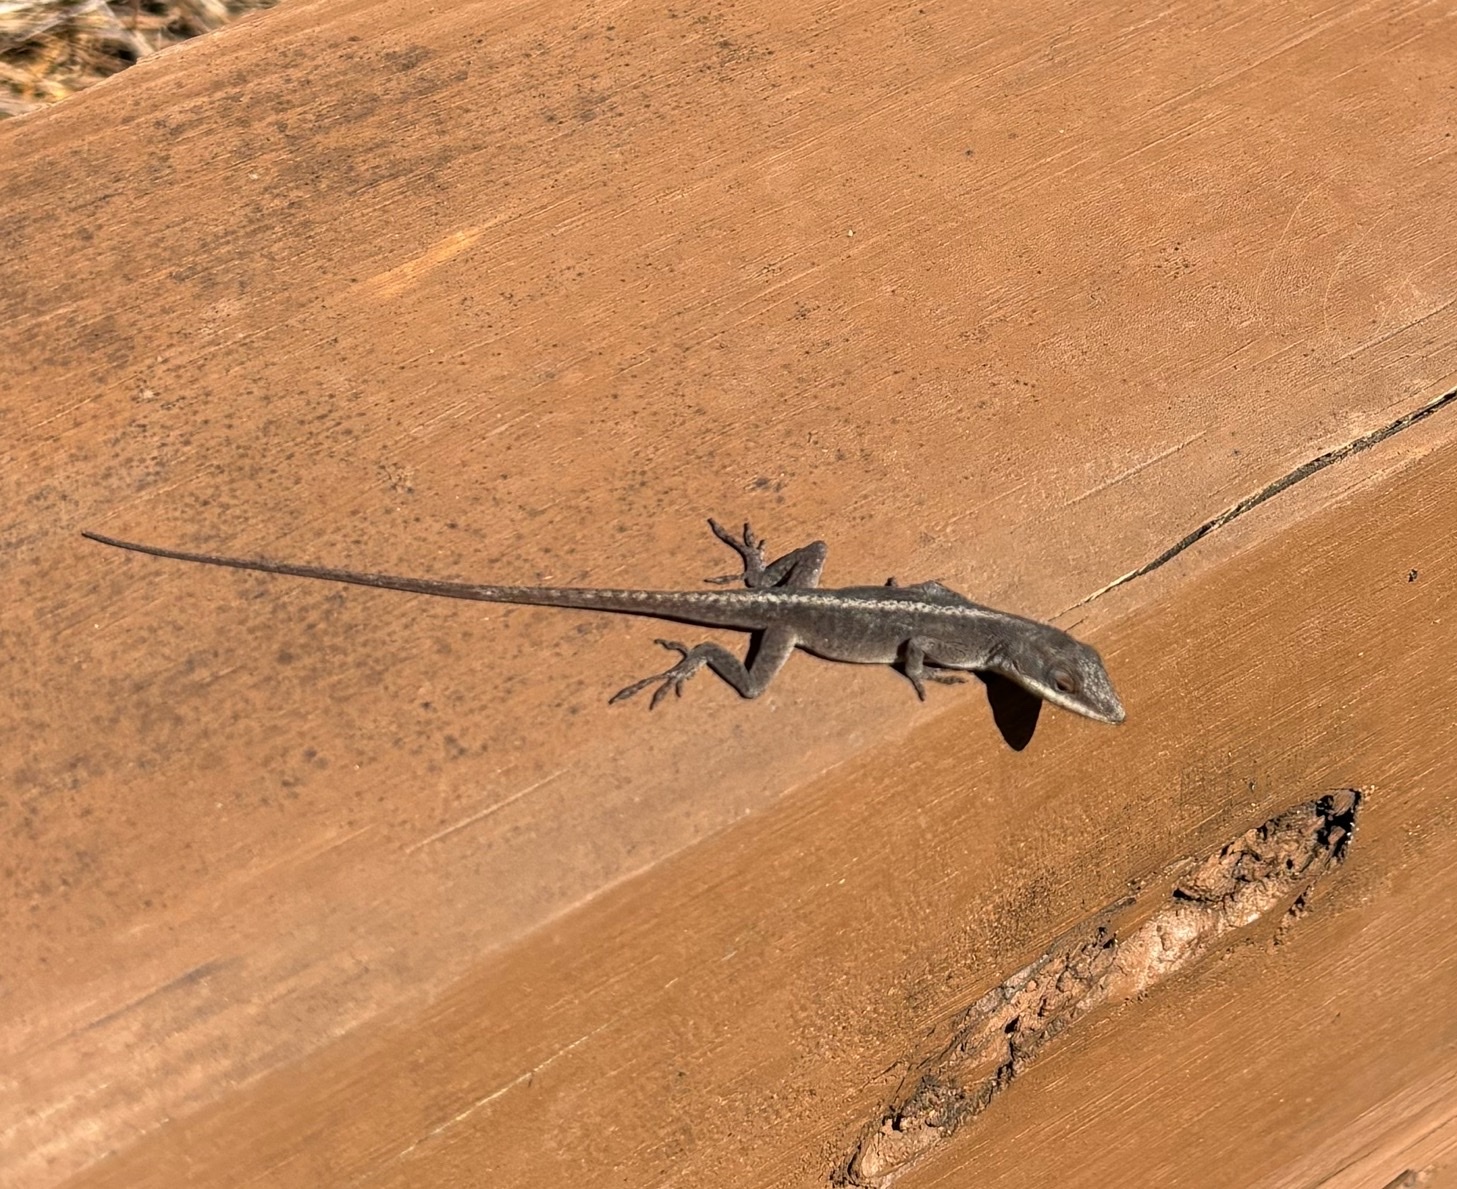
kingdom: Animalia
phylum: Chordata
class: Squamata
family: Dactyloidae
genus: Anolis
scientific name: Anolis carolinensis
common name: Green anole
